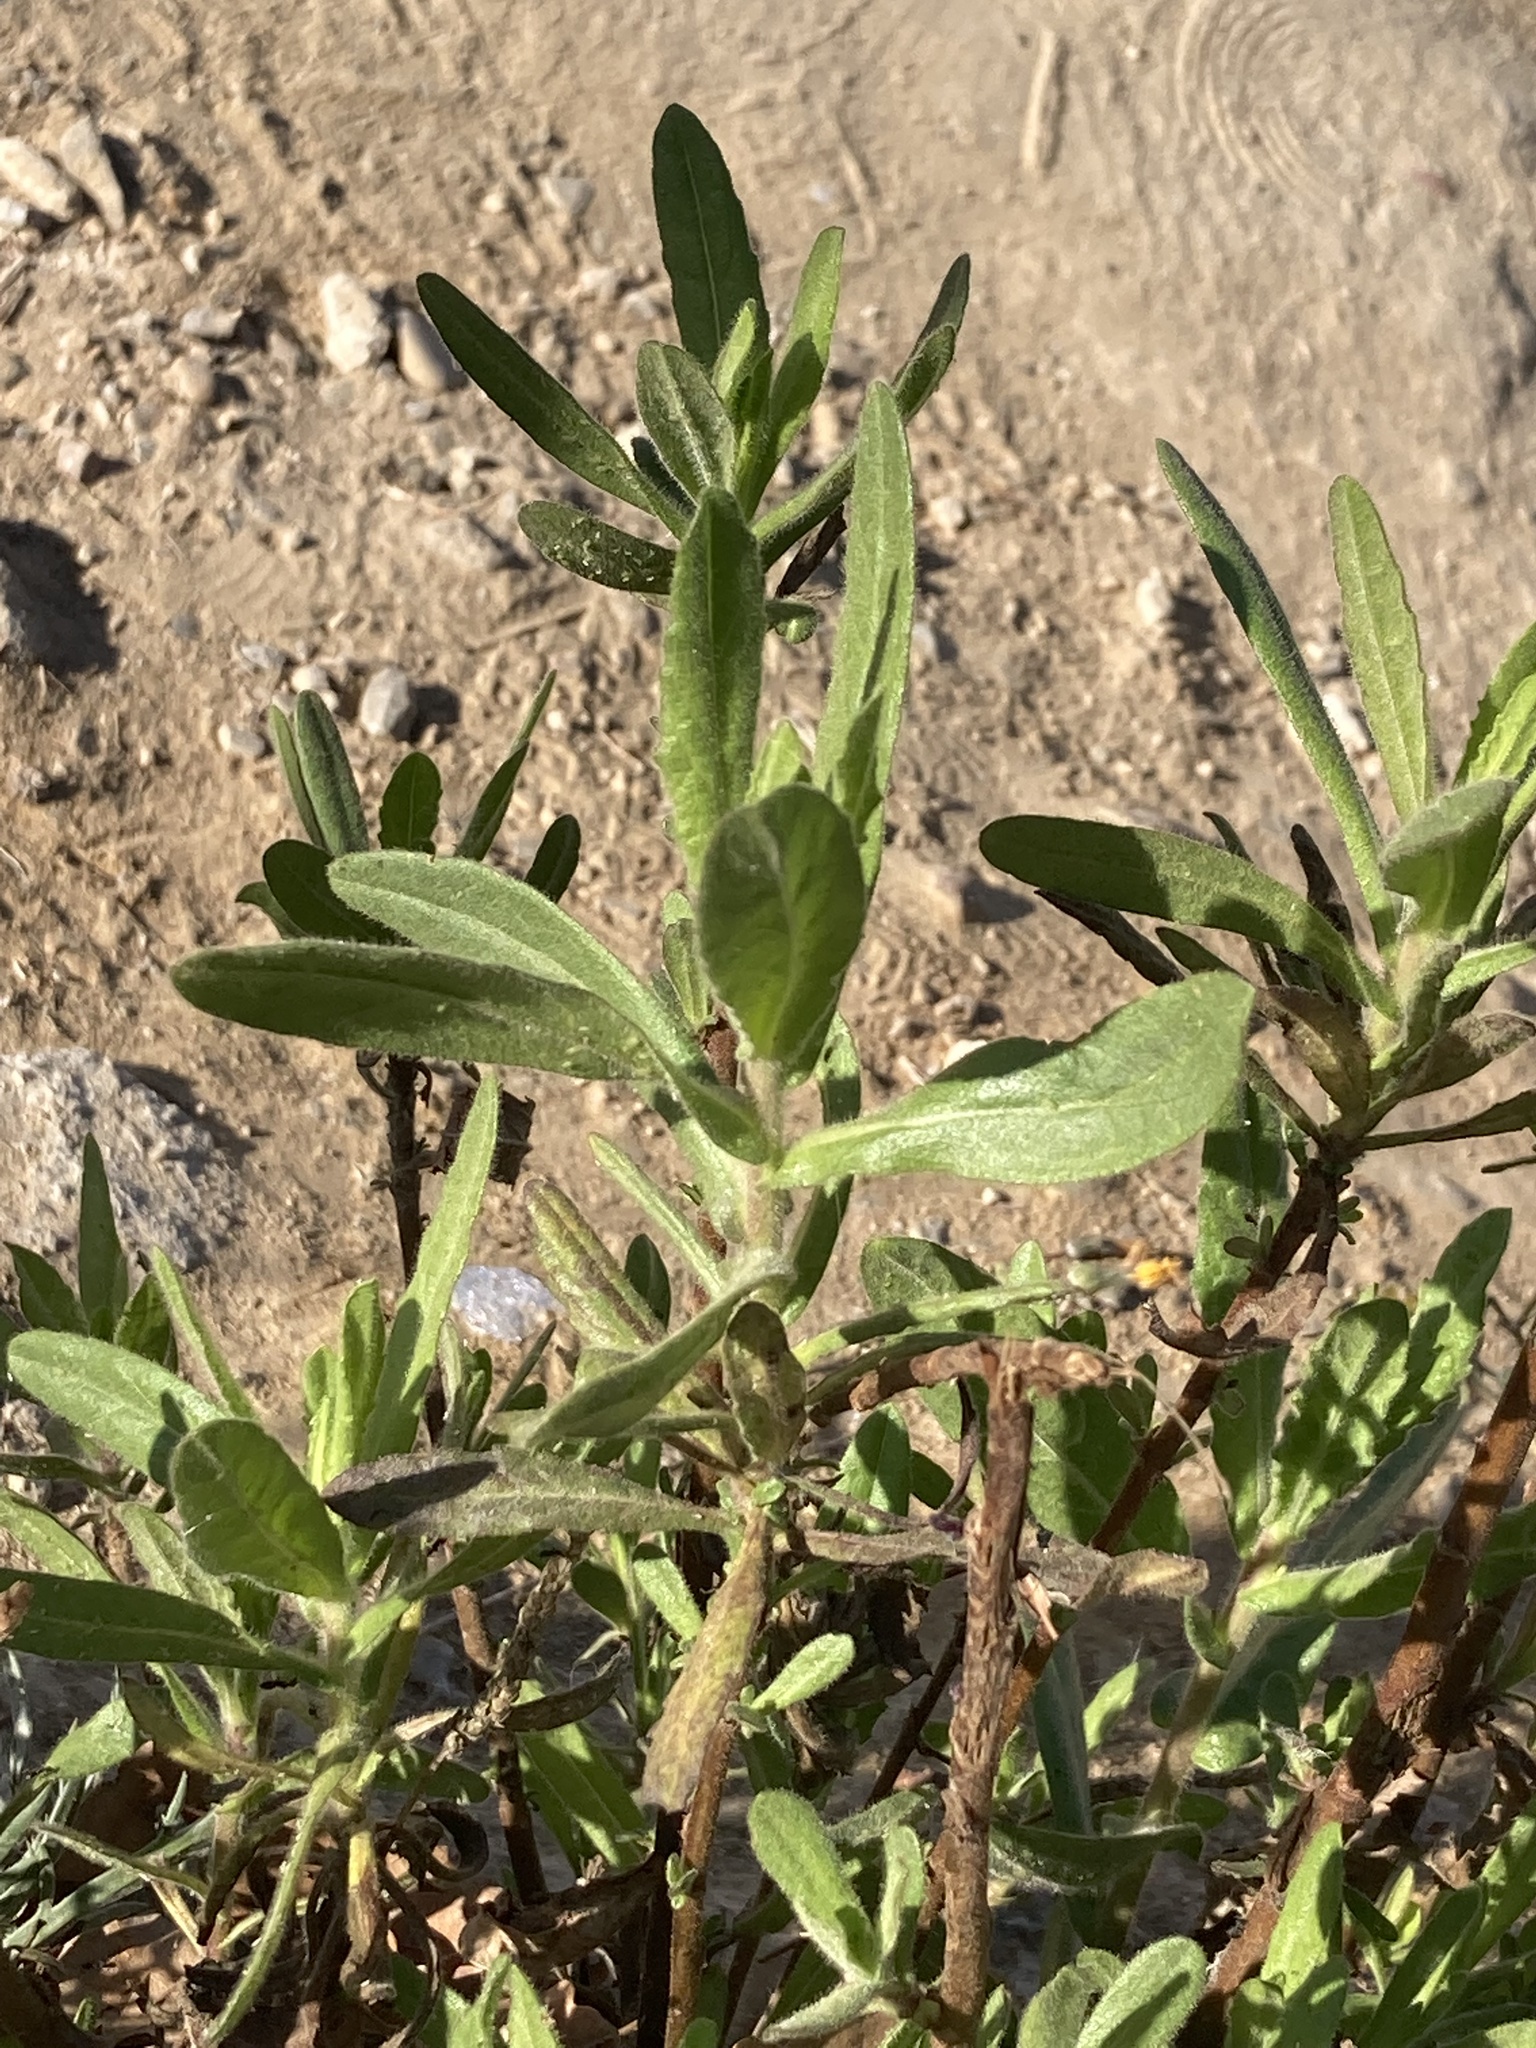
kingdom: Plantae
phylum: Tracheophyta
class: Magnoliopsida
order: Asterales
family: Asteraceae
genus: Dittrichia
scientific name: Dittrichia viscosa
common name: Woody fleabane
